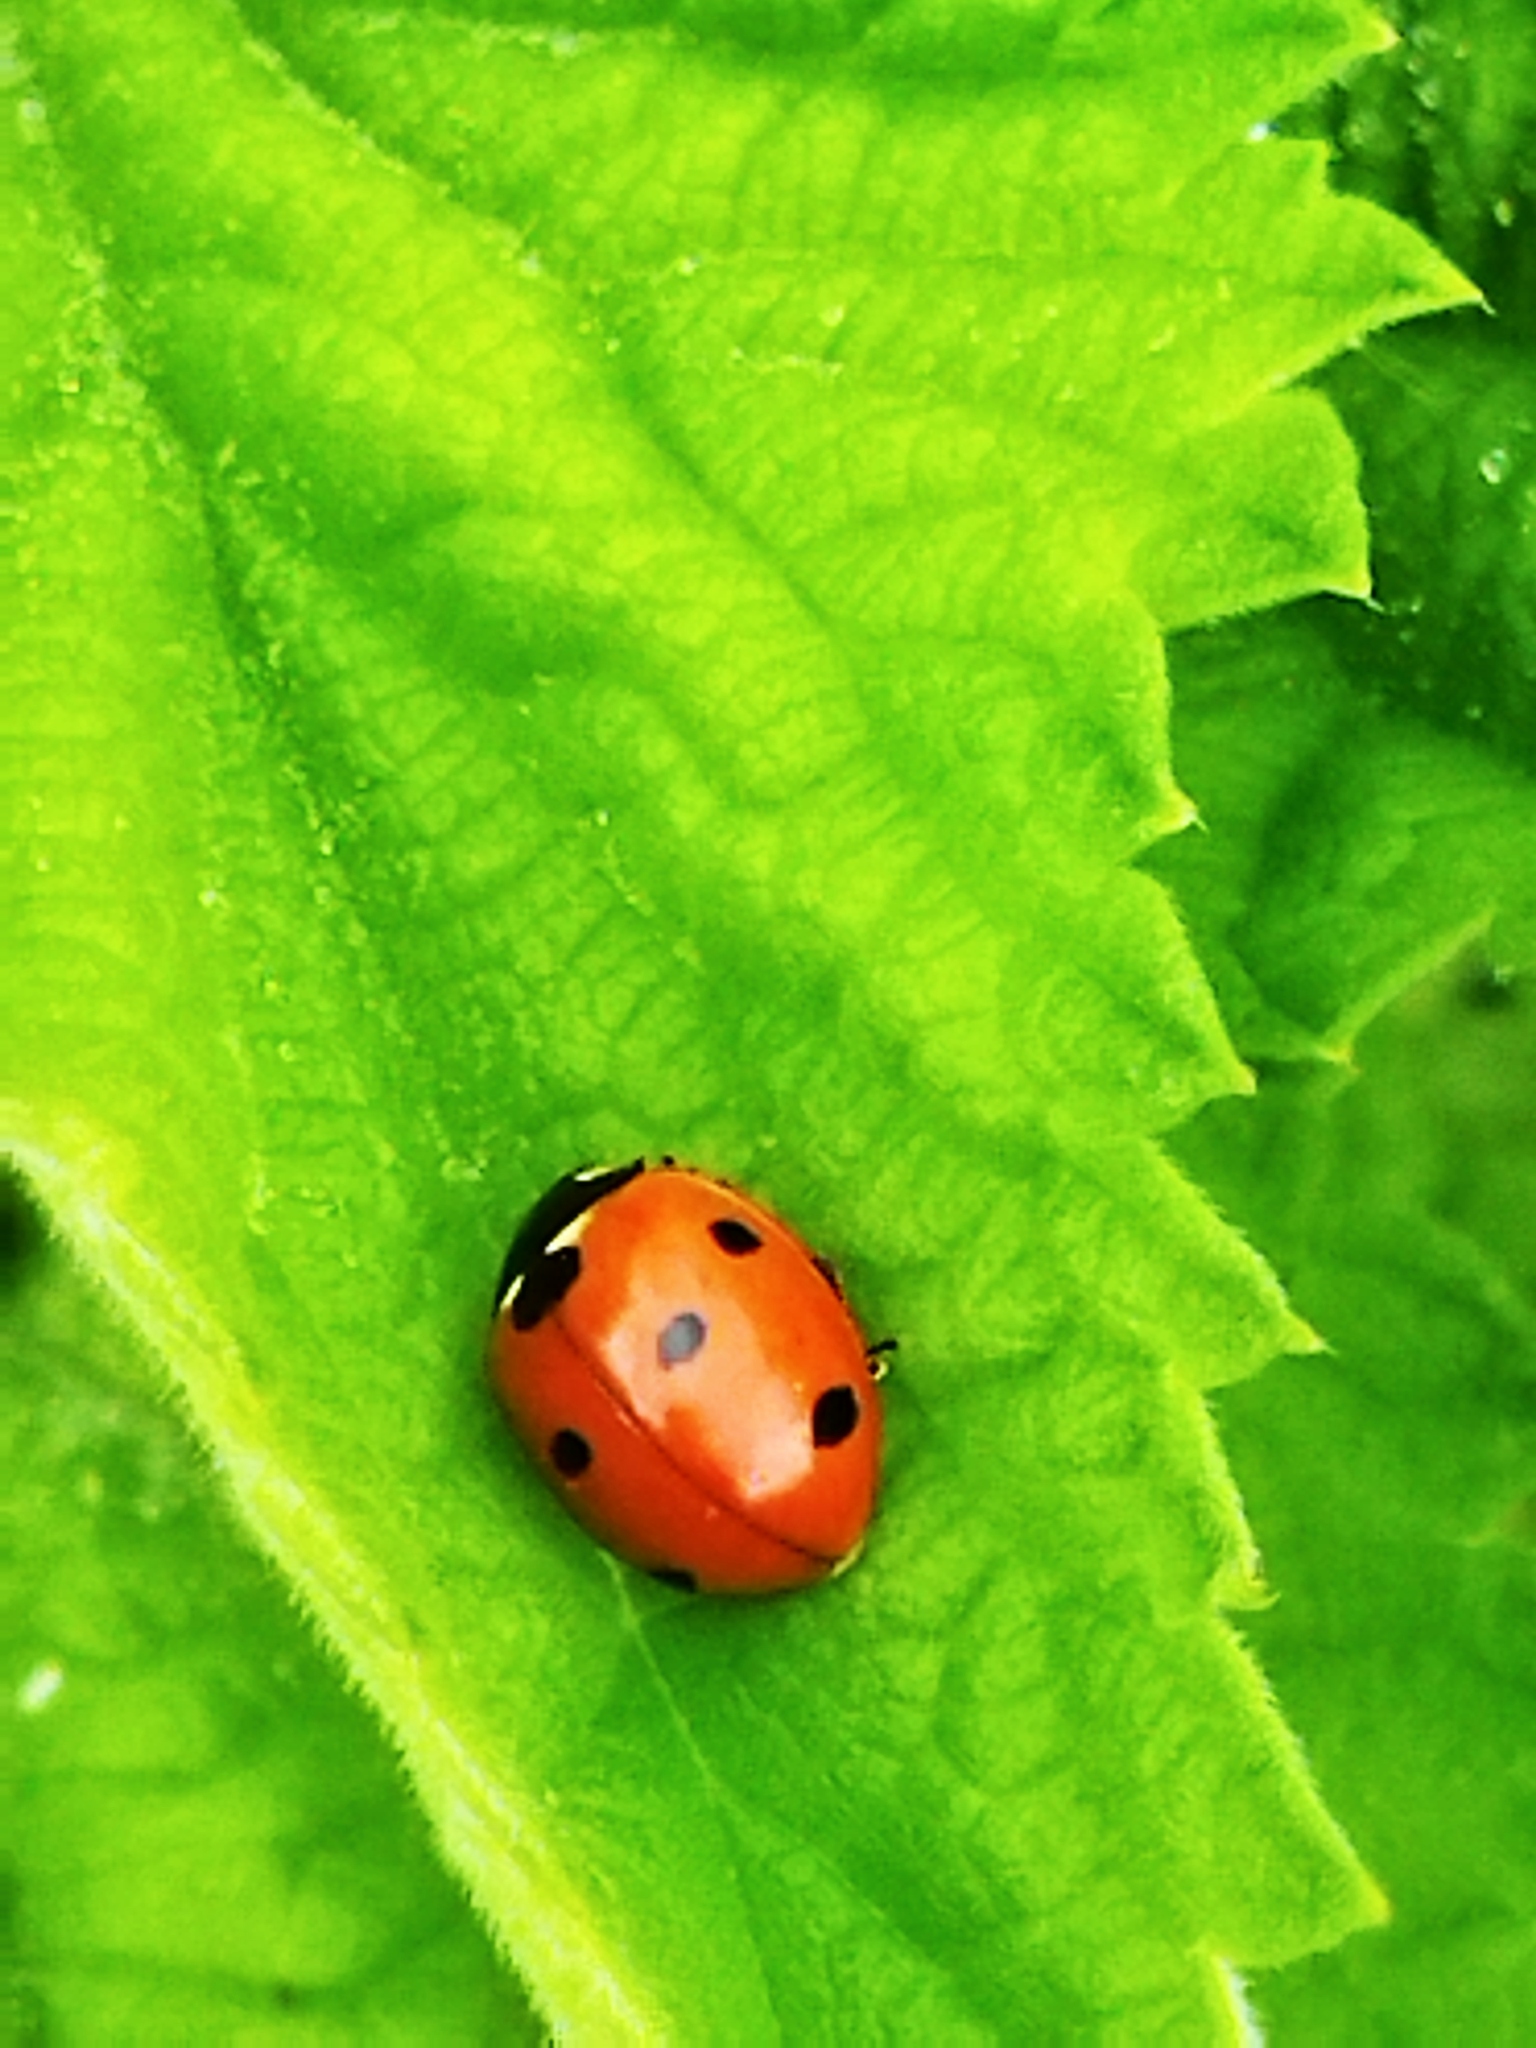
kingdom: Animalia
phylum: Arthropoda
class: Insecta
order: Coleoptera
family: Coccinellidae
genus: Coccinella
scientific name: Coccinella septempunctata
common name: Sevenspotted lady beetle
